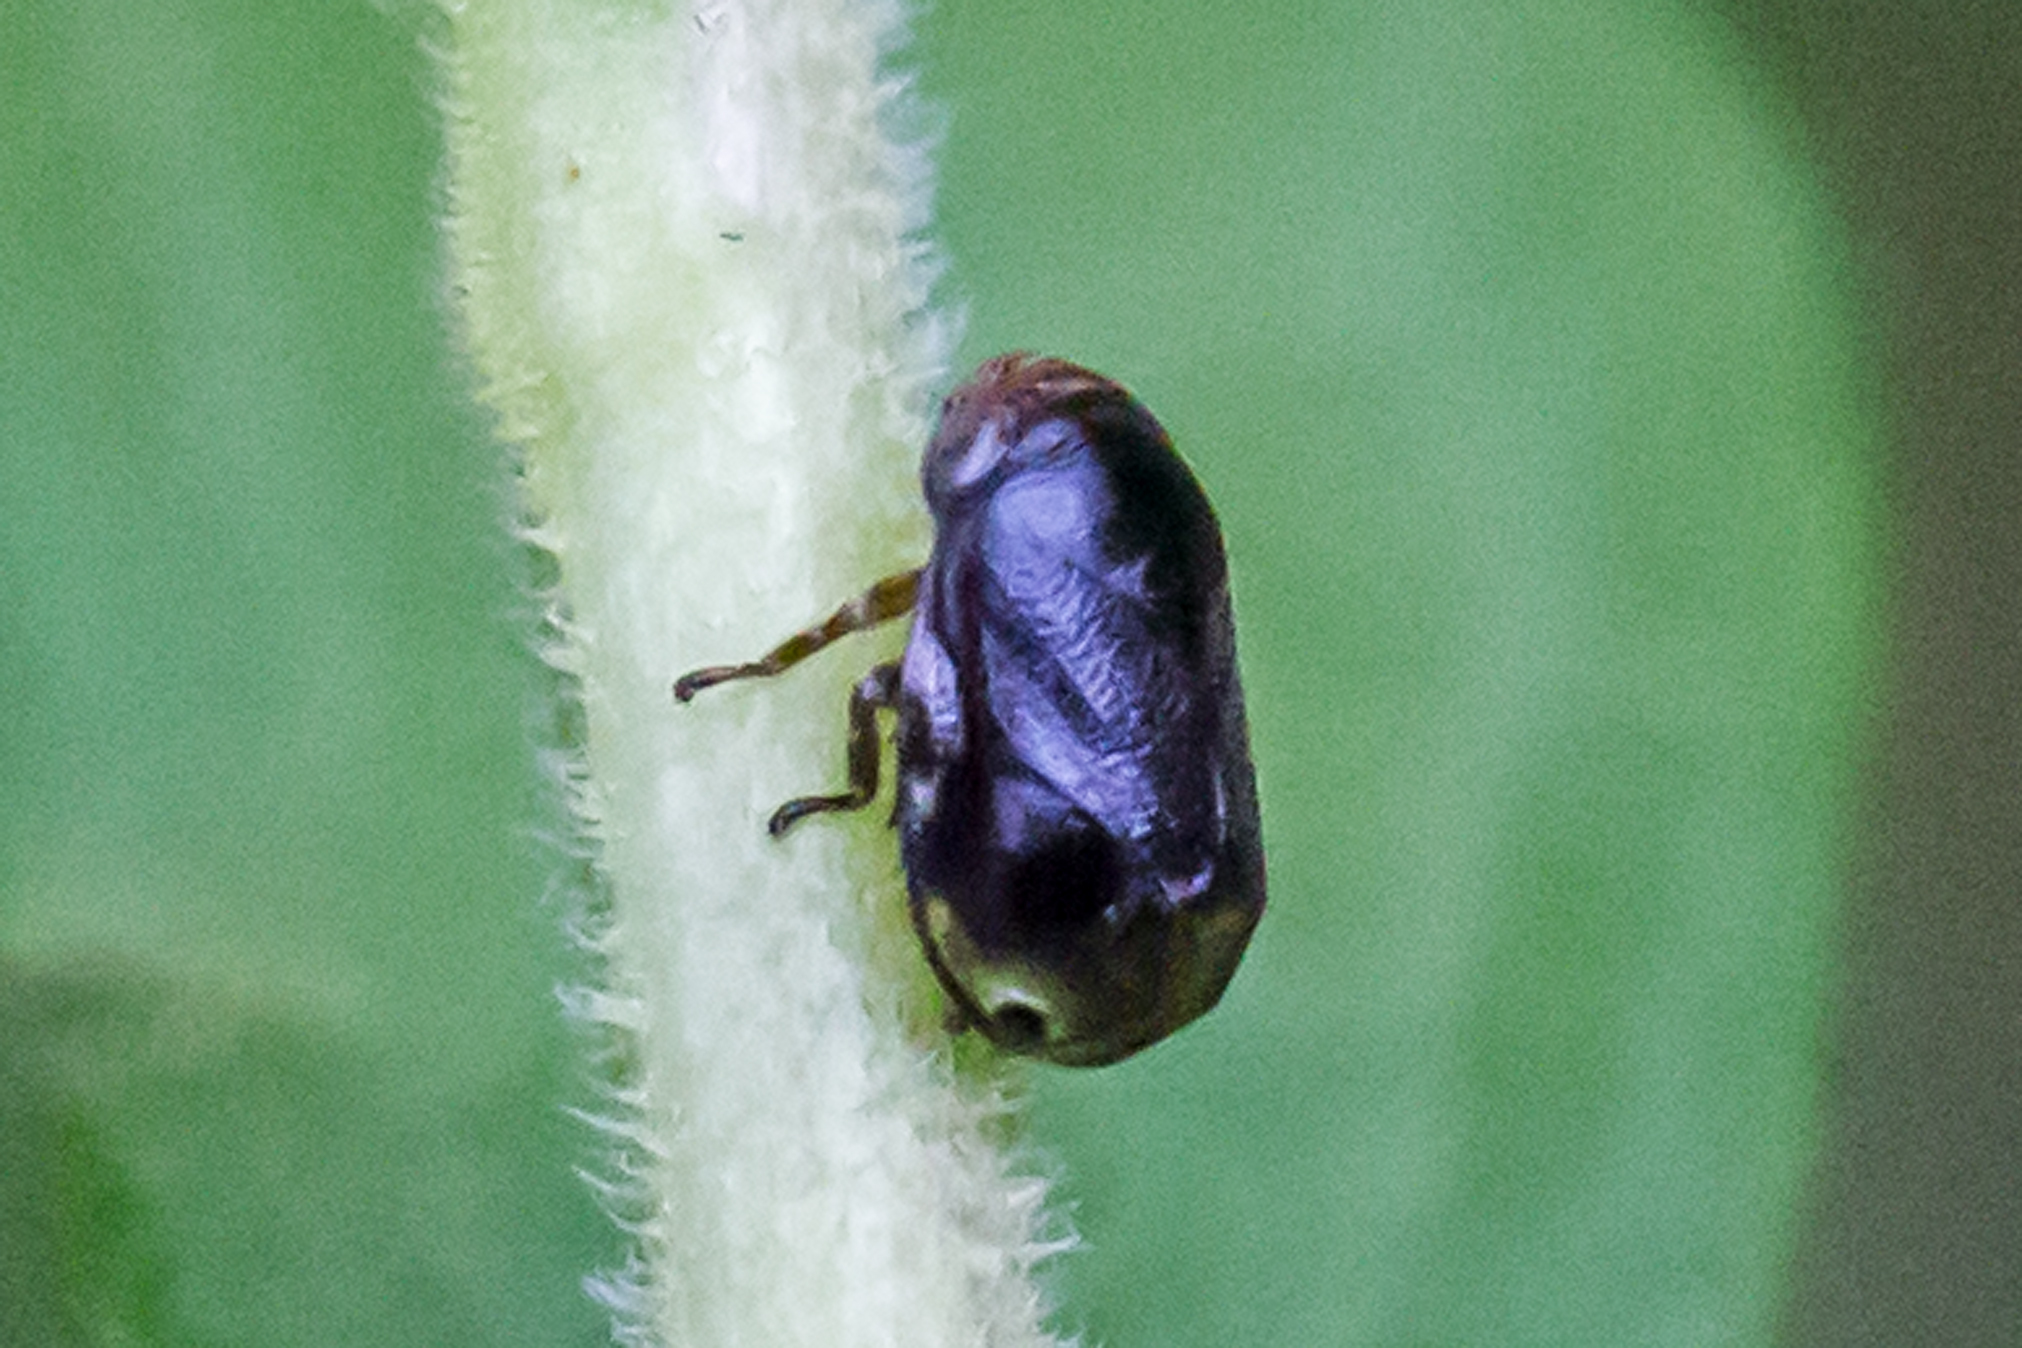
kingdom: Animalia
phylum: Arthropoda
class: Insecta
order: Hemiptera
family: Clastopteridae
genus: Clastoptera
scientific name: Clastoptera xanthocephala
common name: Sunflower spittlebug
